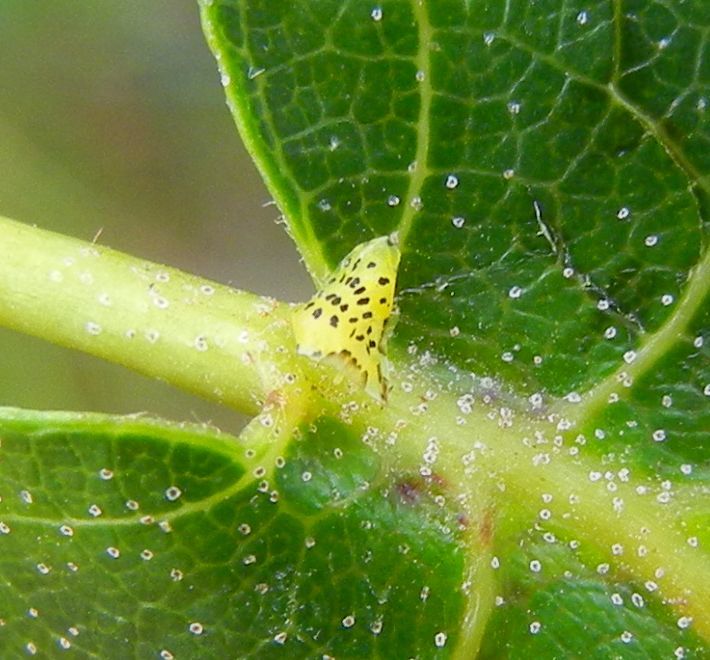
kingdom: Animalia
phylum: Arthropoda
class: Insecta
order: Hemiptera
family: Aphididae
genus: Crypturaphis
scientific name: Crypturaphis grassii
